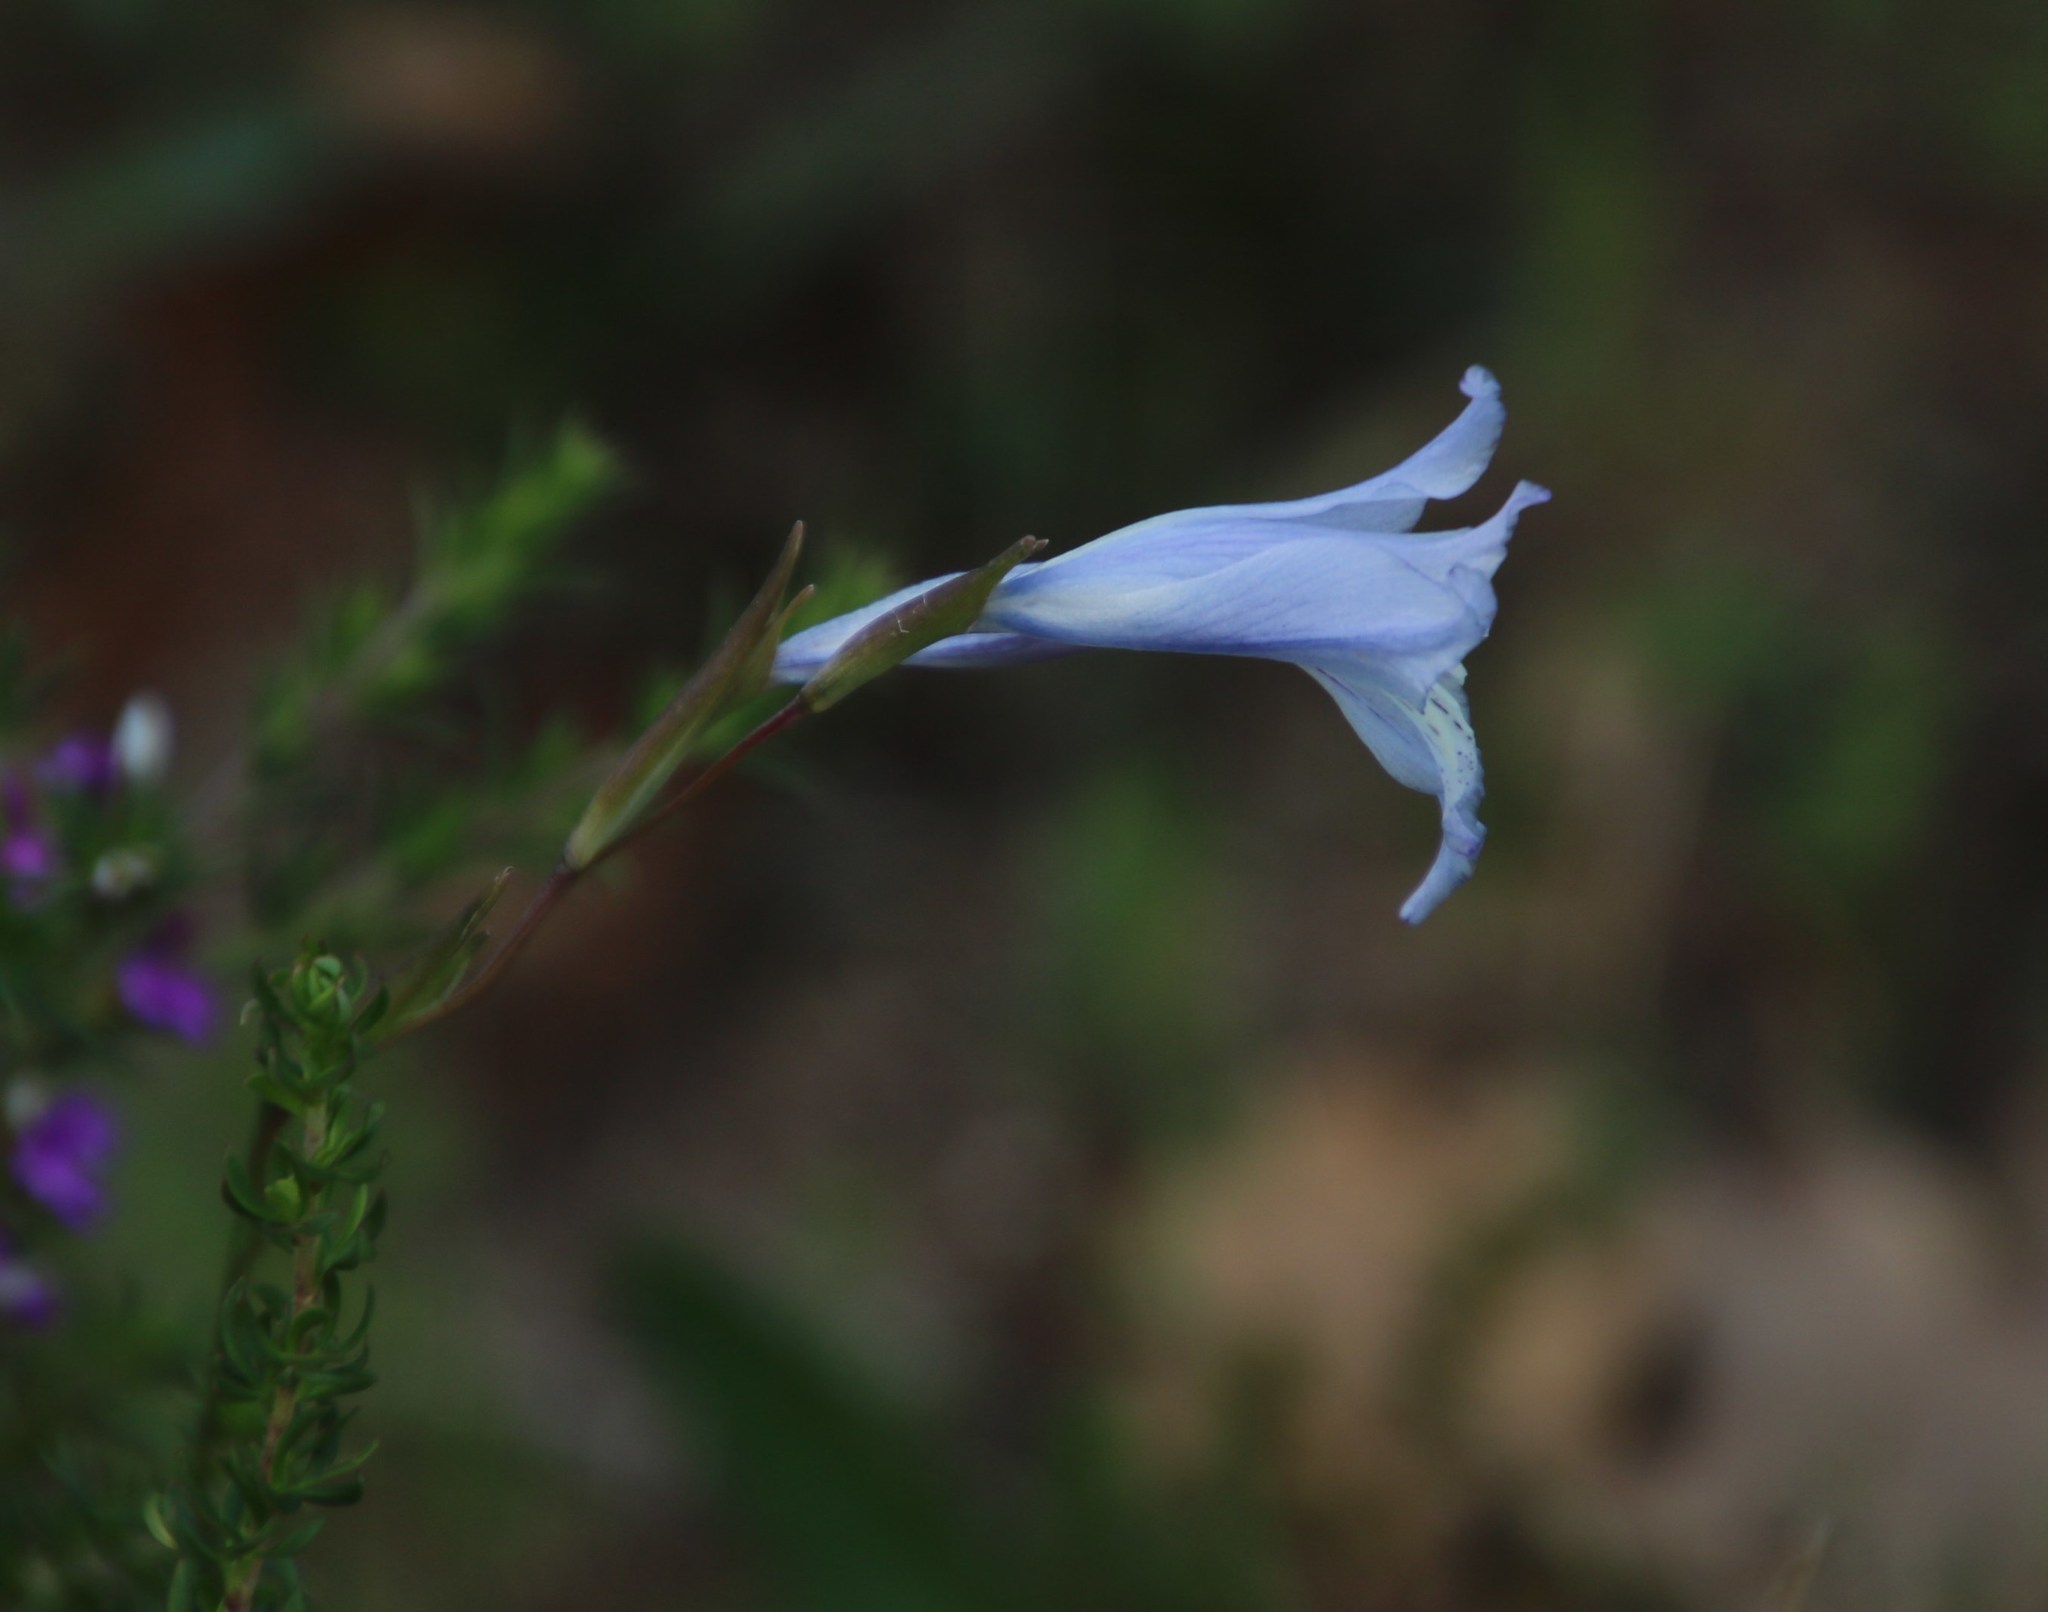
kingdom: Plantae
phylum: Tracheophyta
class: Liliopsida
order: Asparagales
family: Iridaceae
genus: Gladiolus
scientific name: Gladiolus gracilis
